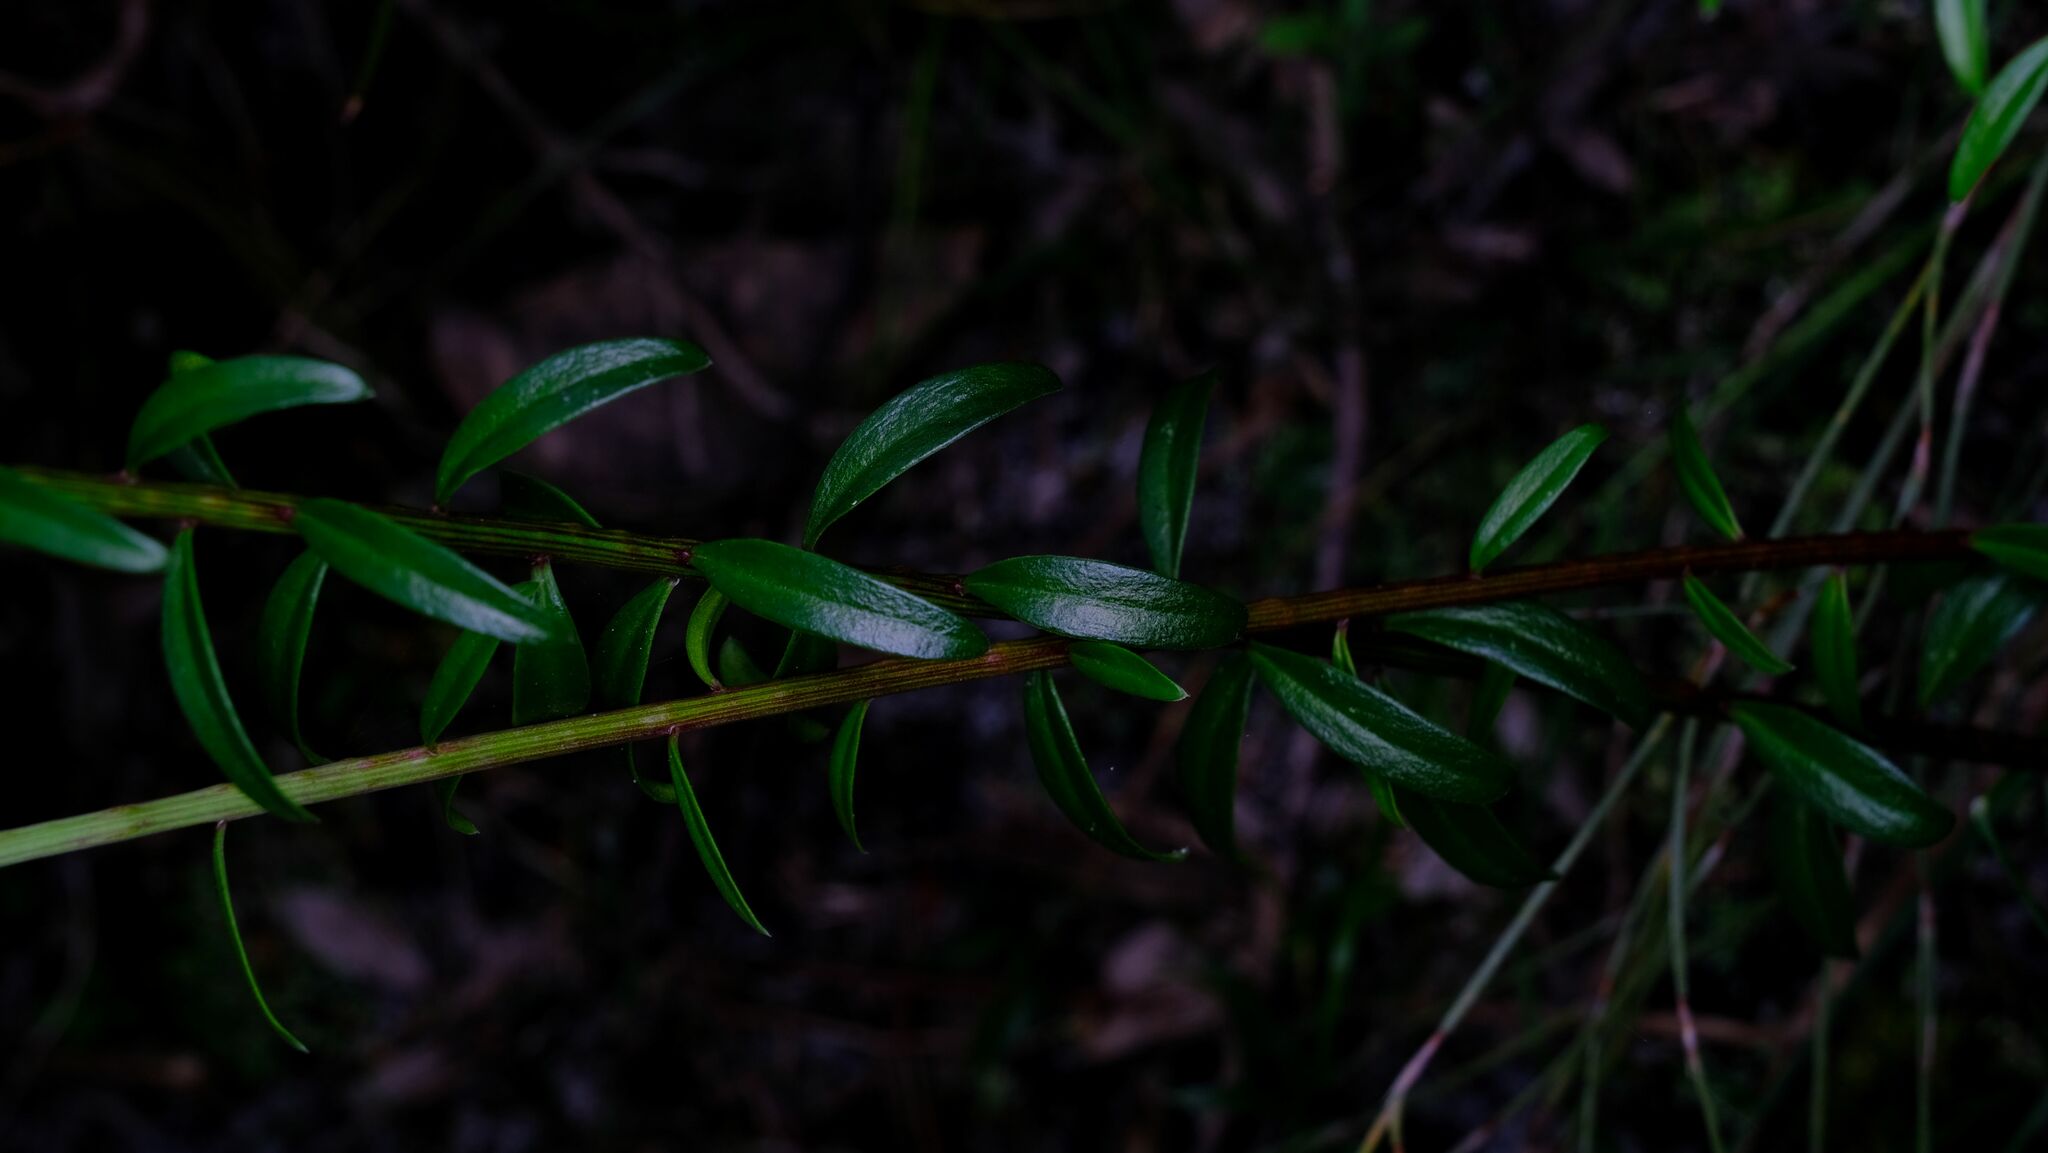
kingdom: Plantae
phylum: Tracheophyta
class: Magnoliopsida
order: Celastrales
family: Celastraceae
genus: Stackhousia
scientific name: Stackhousia monogyna
